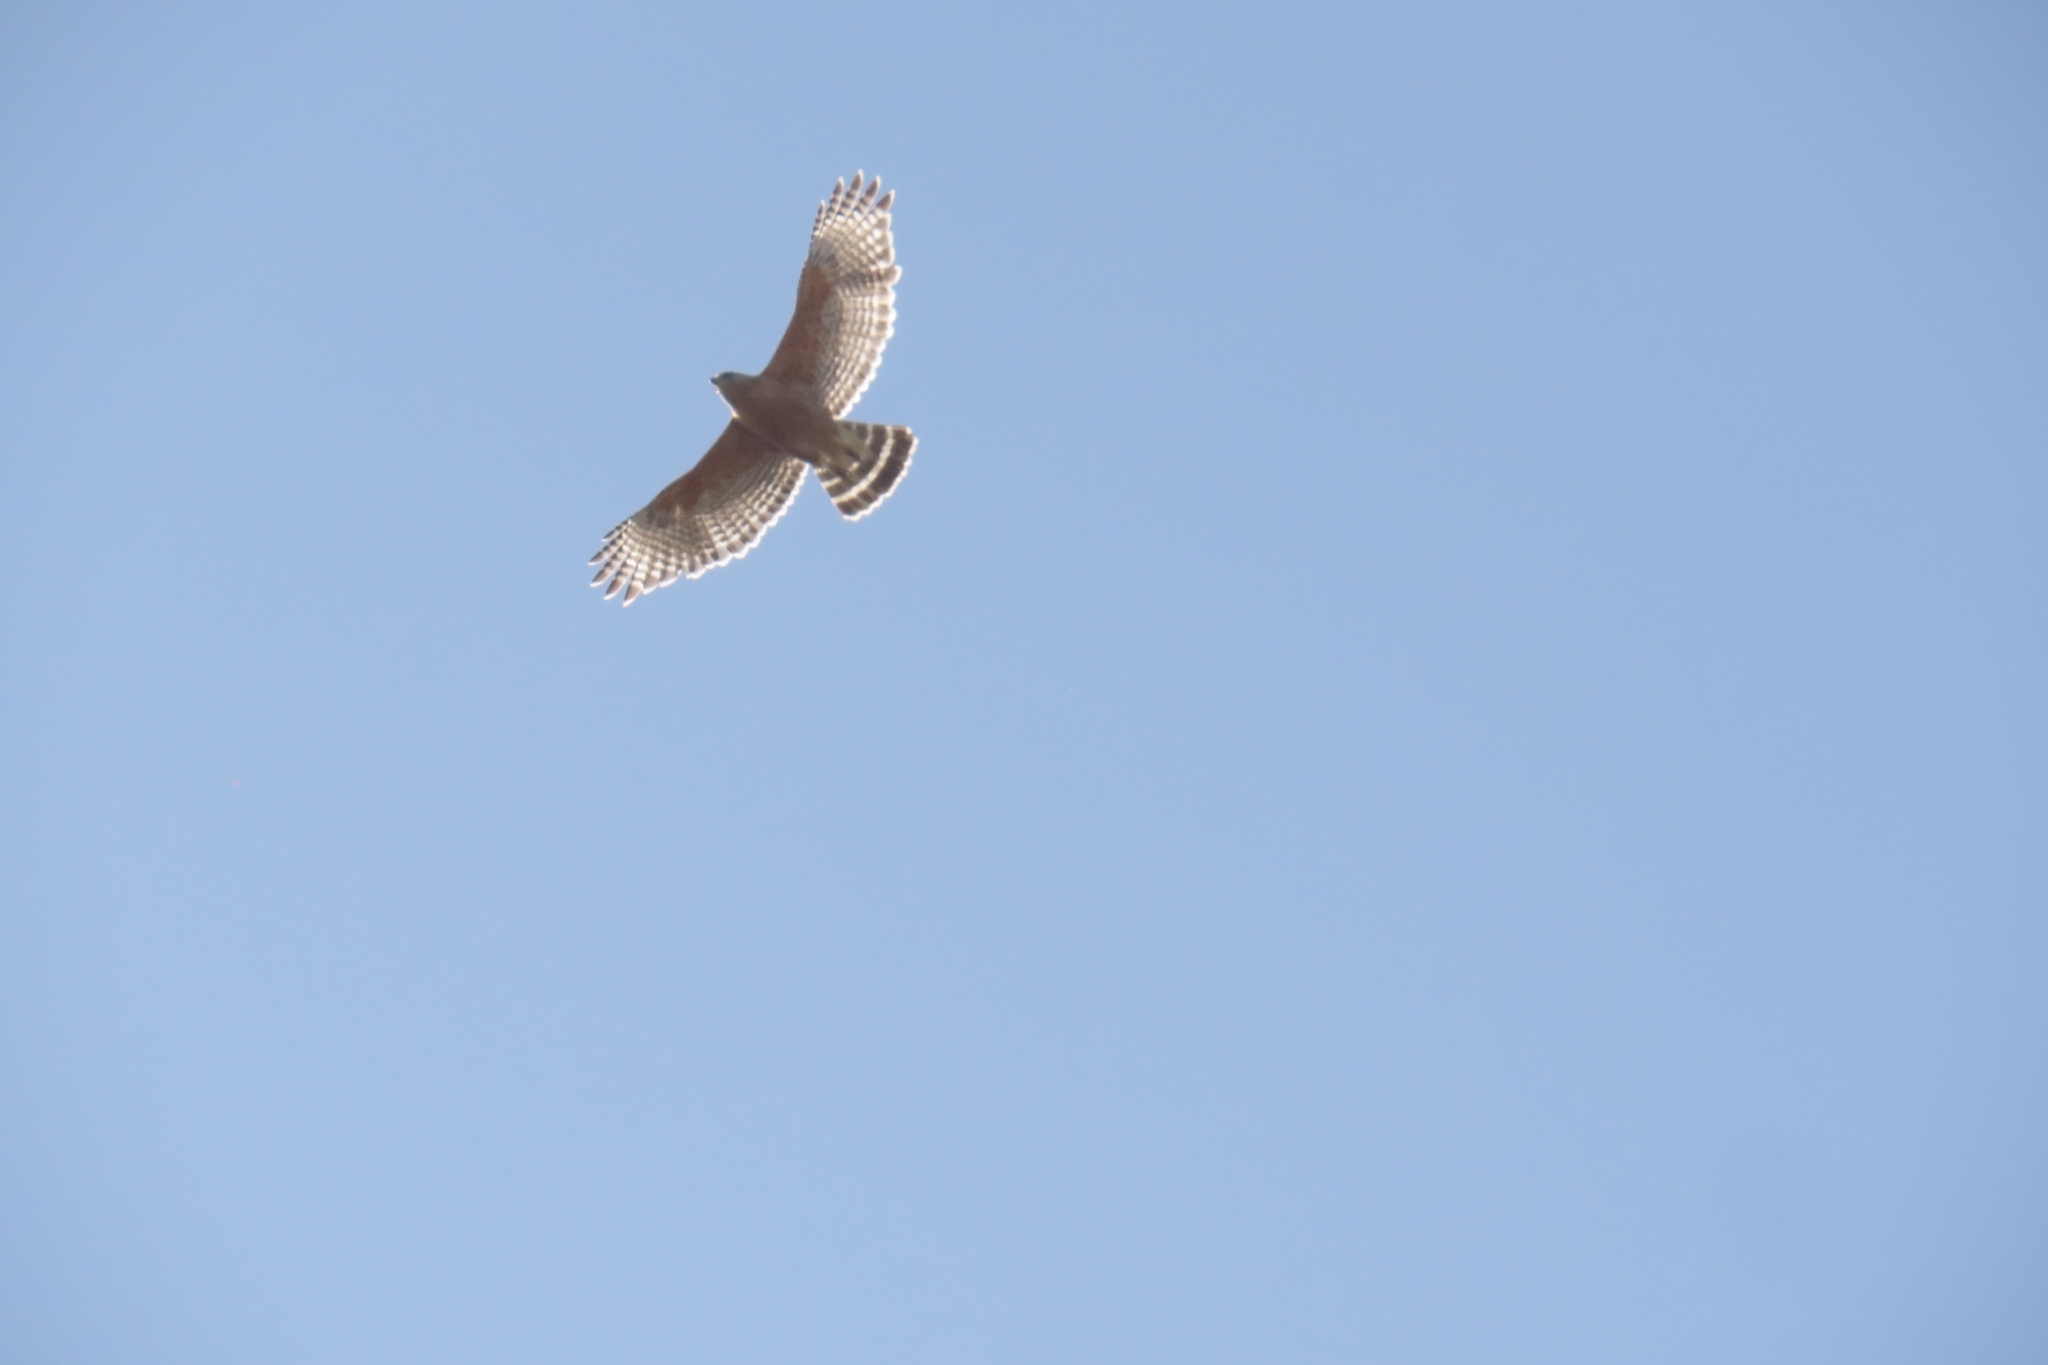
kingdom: Animalia
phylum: Chordata
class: Aves
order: Accipitriformes
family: Accipitridae
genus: Buteo
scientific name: Buteo lineatus
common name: Red-shouldered hawk
